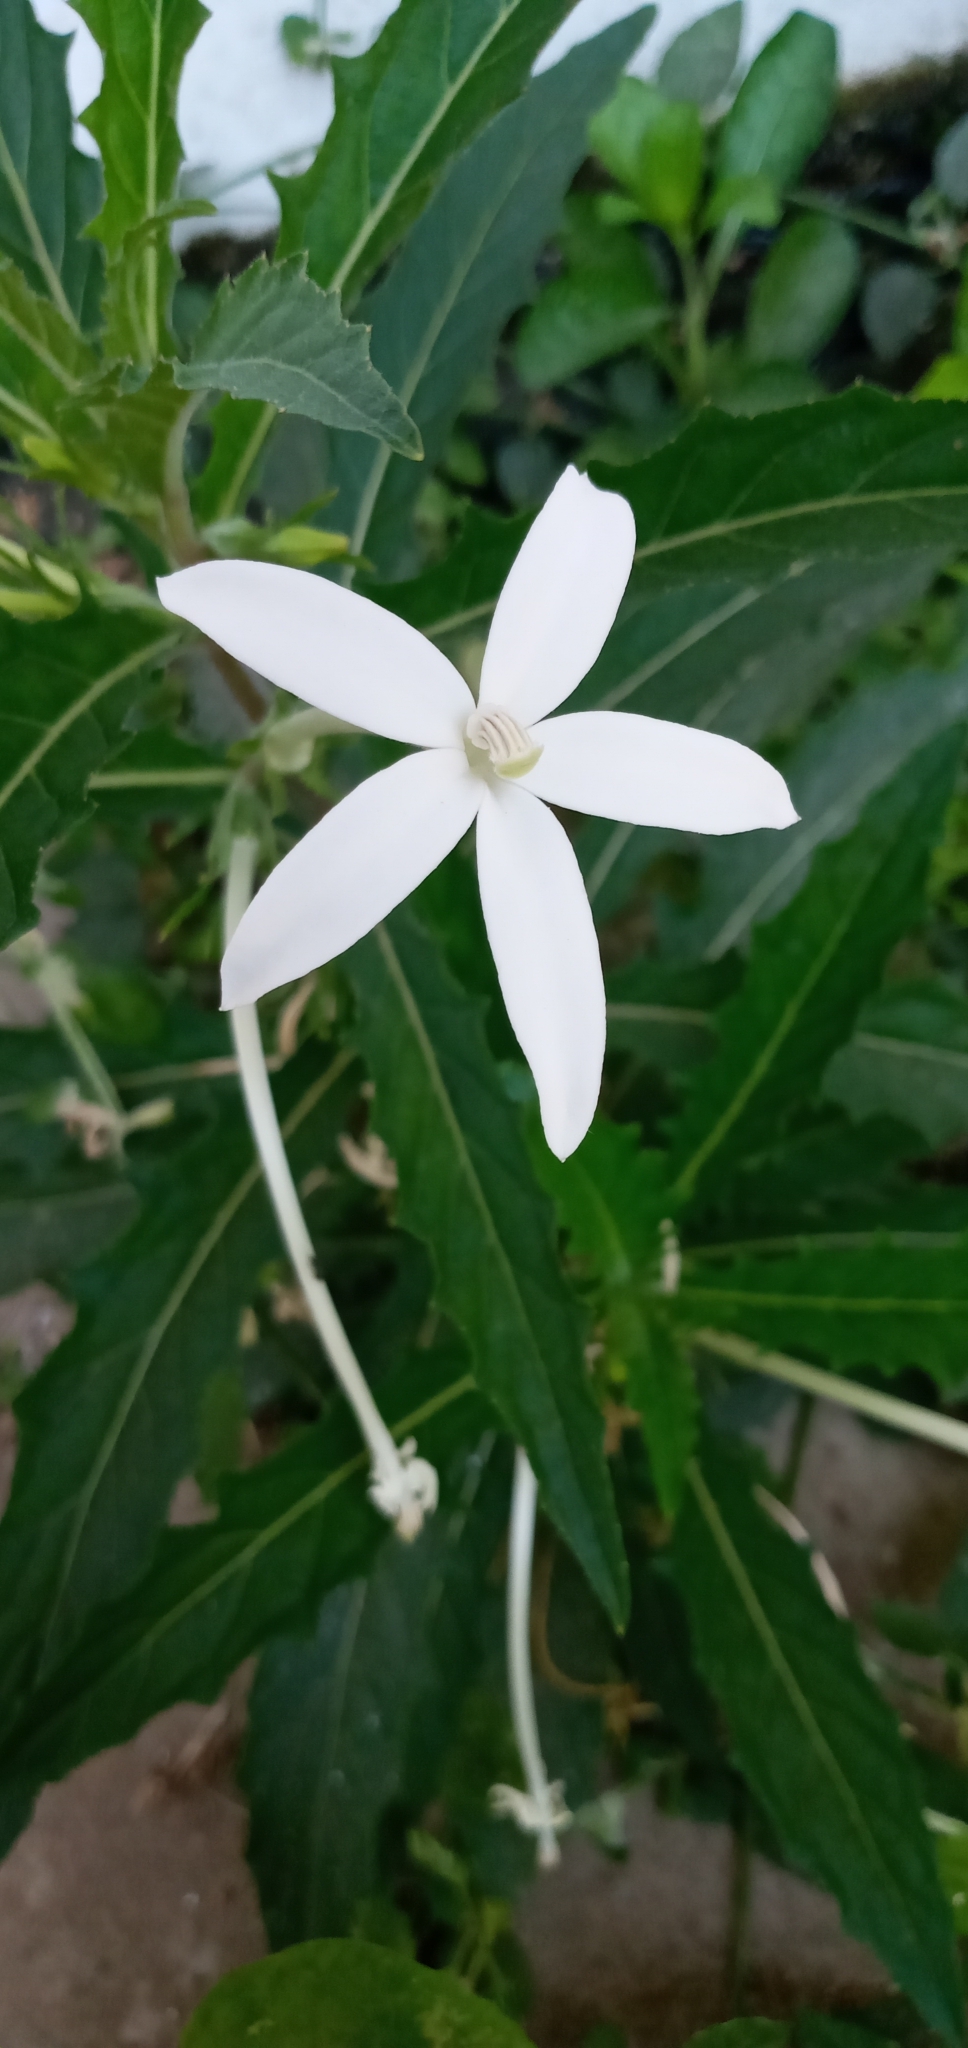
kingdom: Plantae
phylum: Tracheophyta
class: Magnoliopsida
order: Asterales
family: Campanulaceae
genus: Hippobroma
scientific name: Hippobroma longiflora
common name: Madamfate
